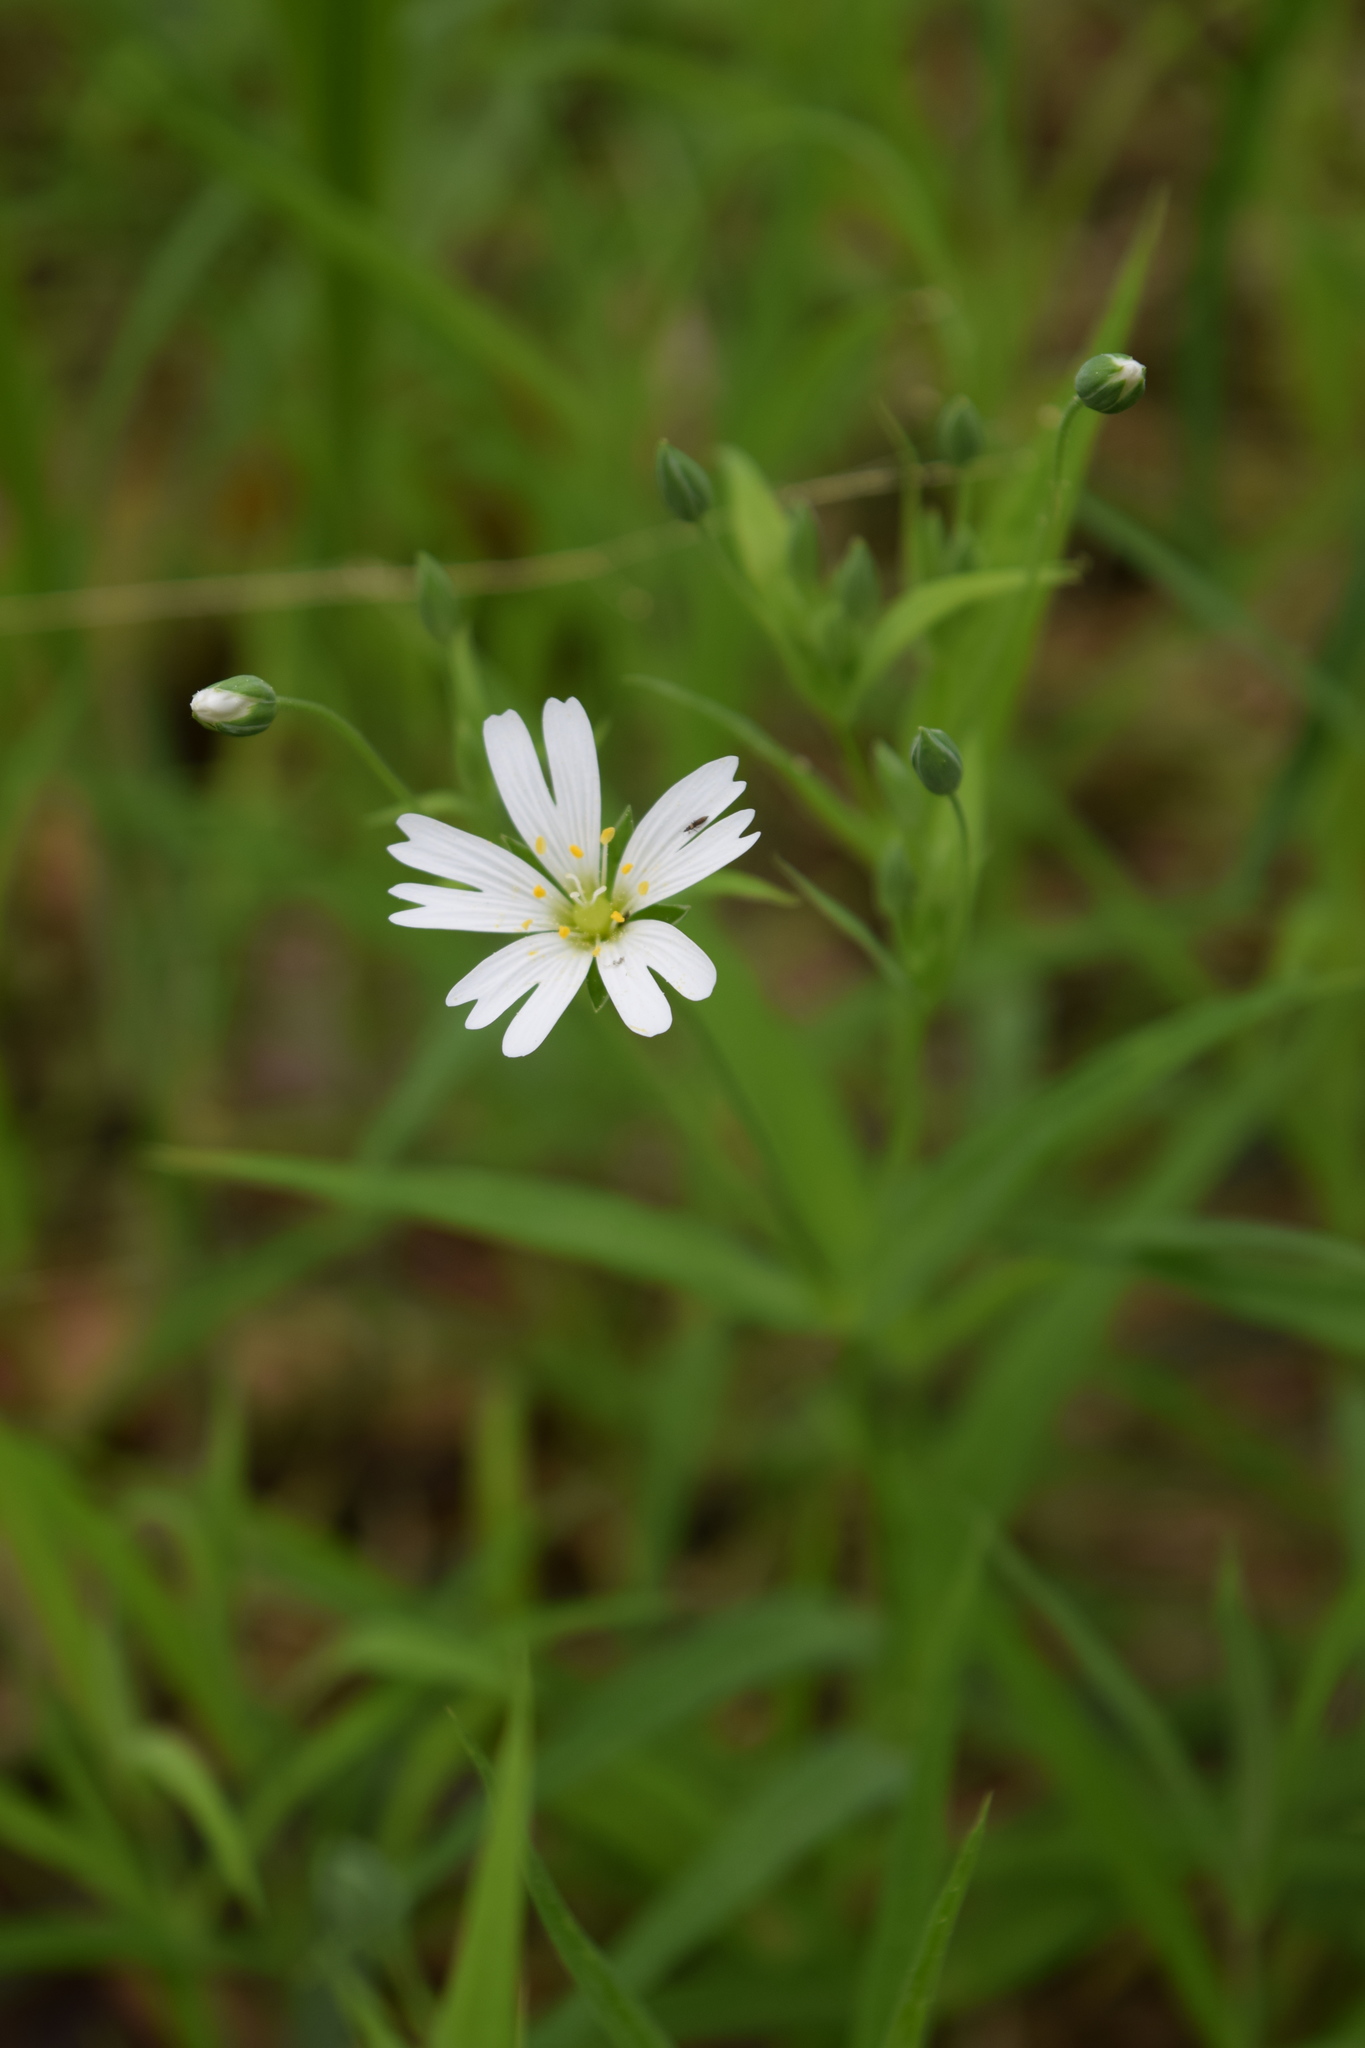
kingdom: Plantae
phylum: Tracheophyta
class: Magnoliopsida
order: Caryophyllales
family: Caryophyllaceae
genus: Rabelera
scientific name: Rabelera holostea
